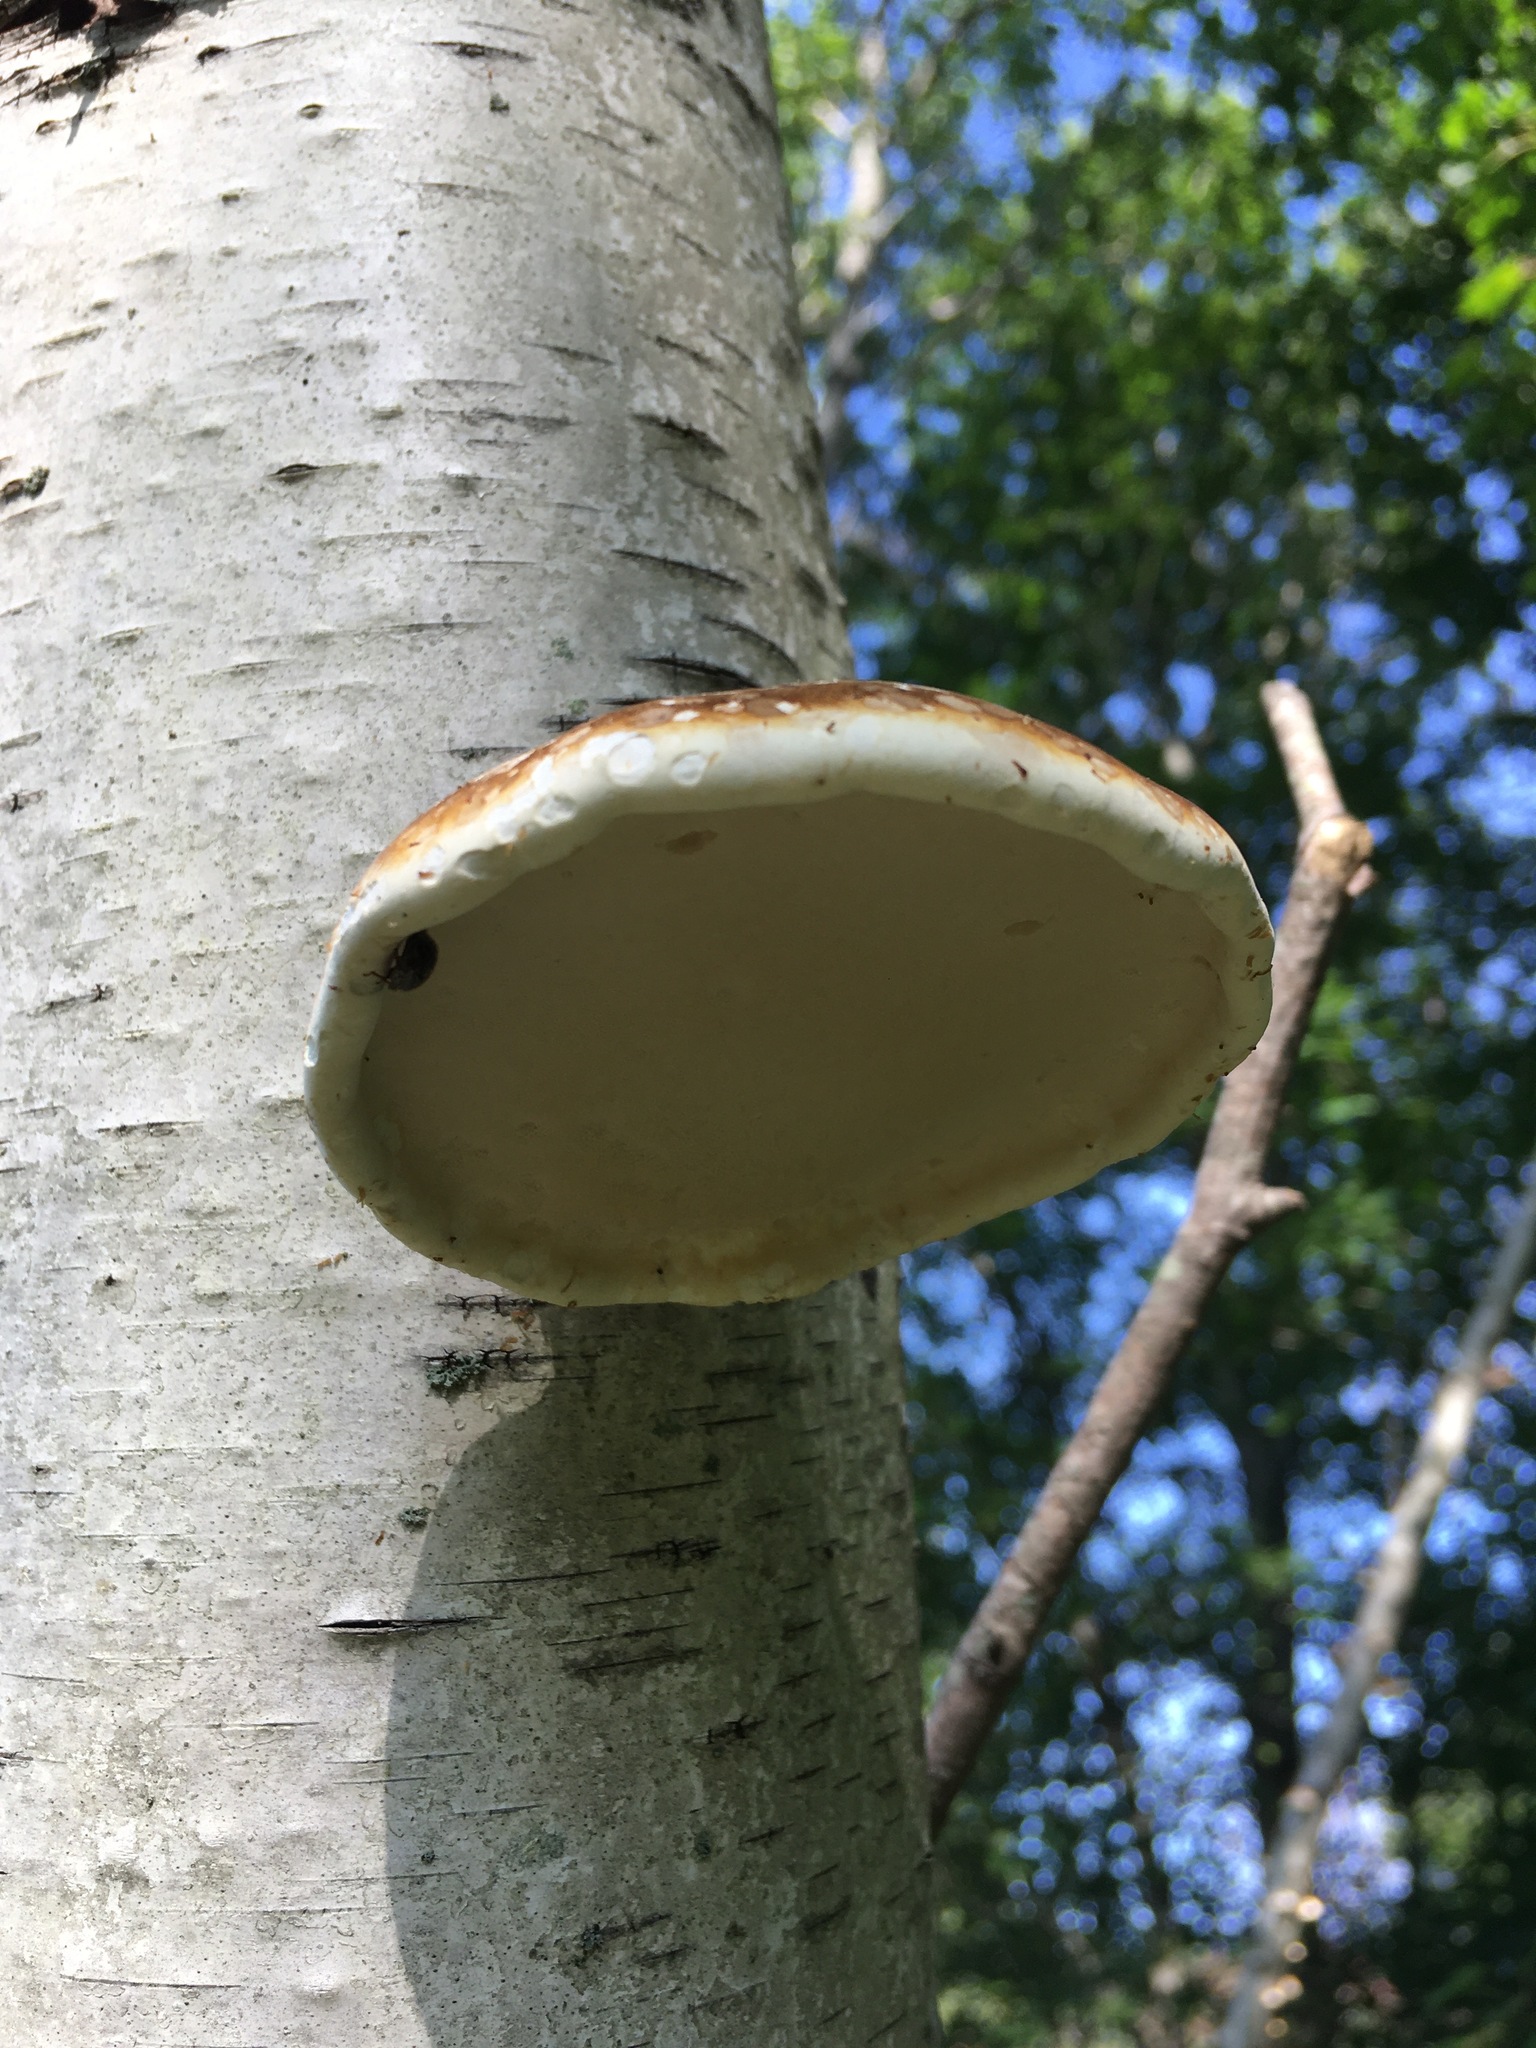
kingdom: Fungi
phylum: Basidiomycota
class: Agaricomycetes
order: Polyporales
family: Fomitopsidaceae
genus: Fomitopsis
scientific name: Fomitopsis betulina
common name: Birch polypore
